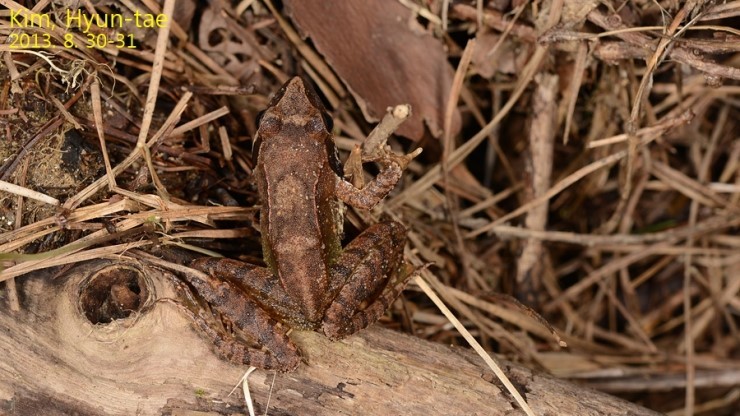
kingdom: Animalia
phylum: Chordata
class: Amphibia
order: Anura
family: Ranidae
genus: Rana
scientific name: Rana uenoi
